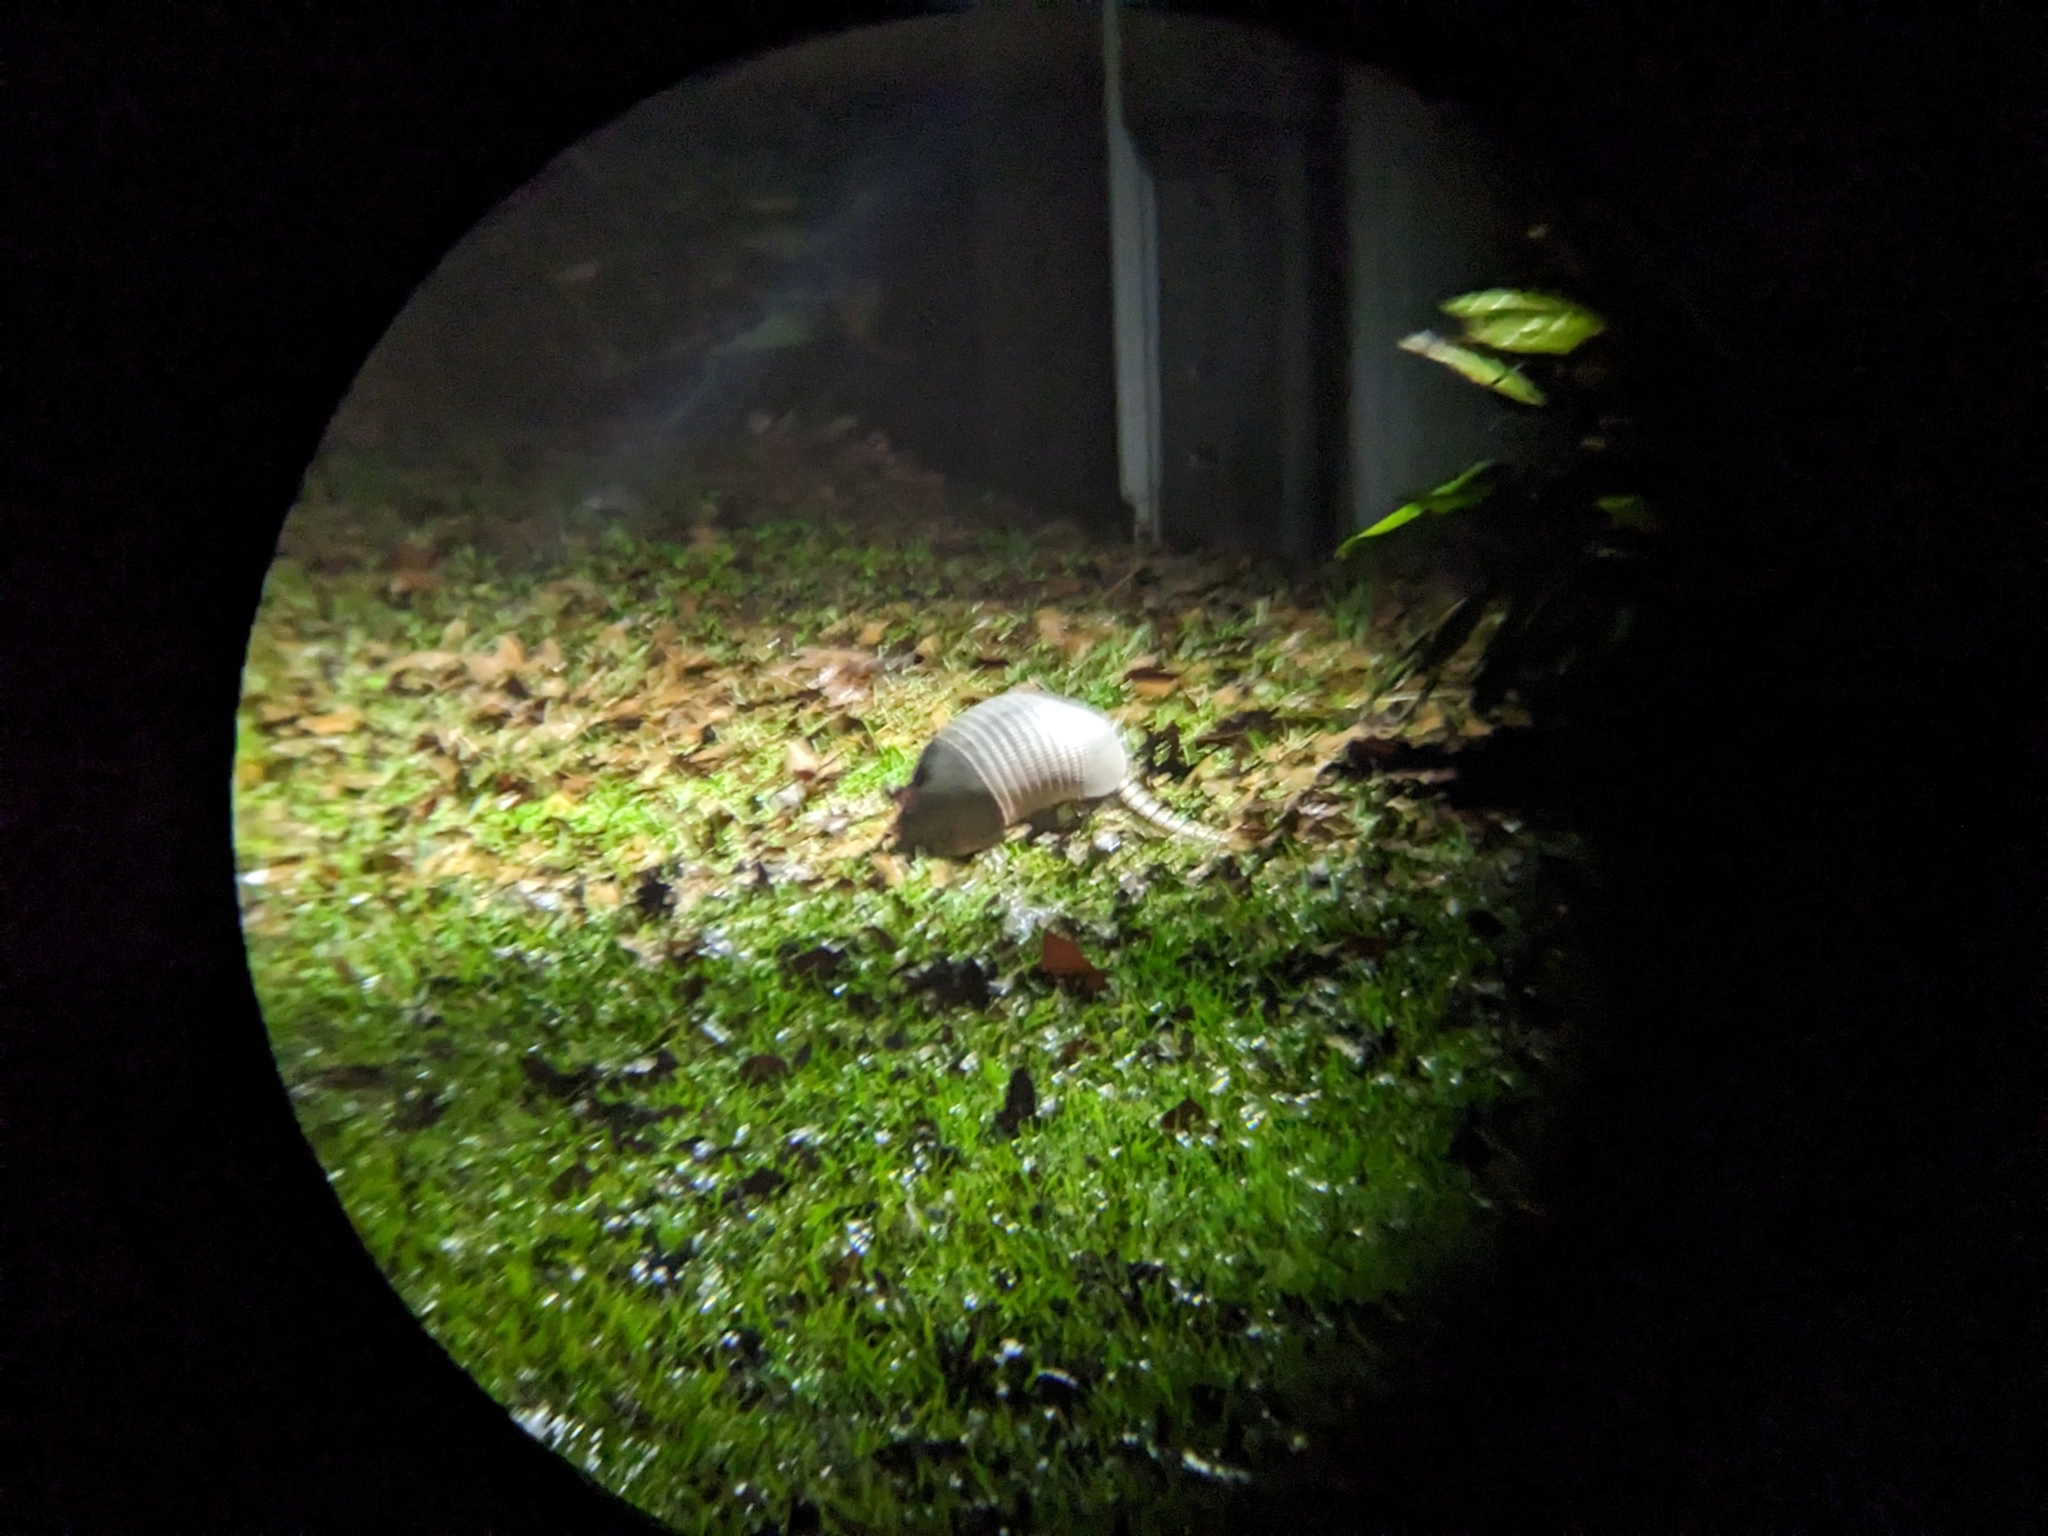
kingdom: Animalia
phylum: Chordata
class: Mammalia
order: Cingulata
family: Dasypodidae
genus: Dasypus
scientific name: Dasypus novemcinctus
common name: Nine-banded armadillo
